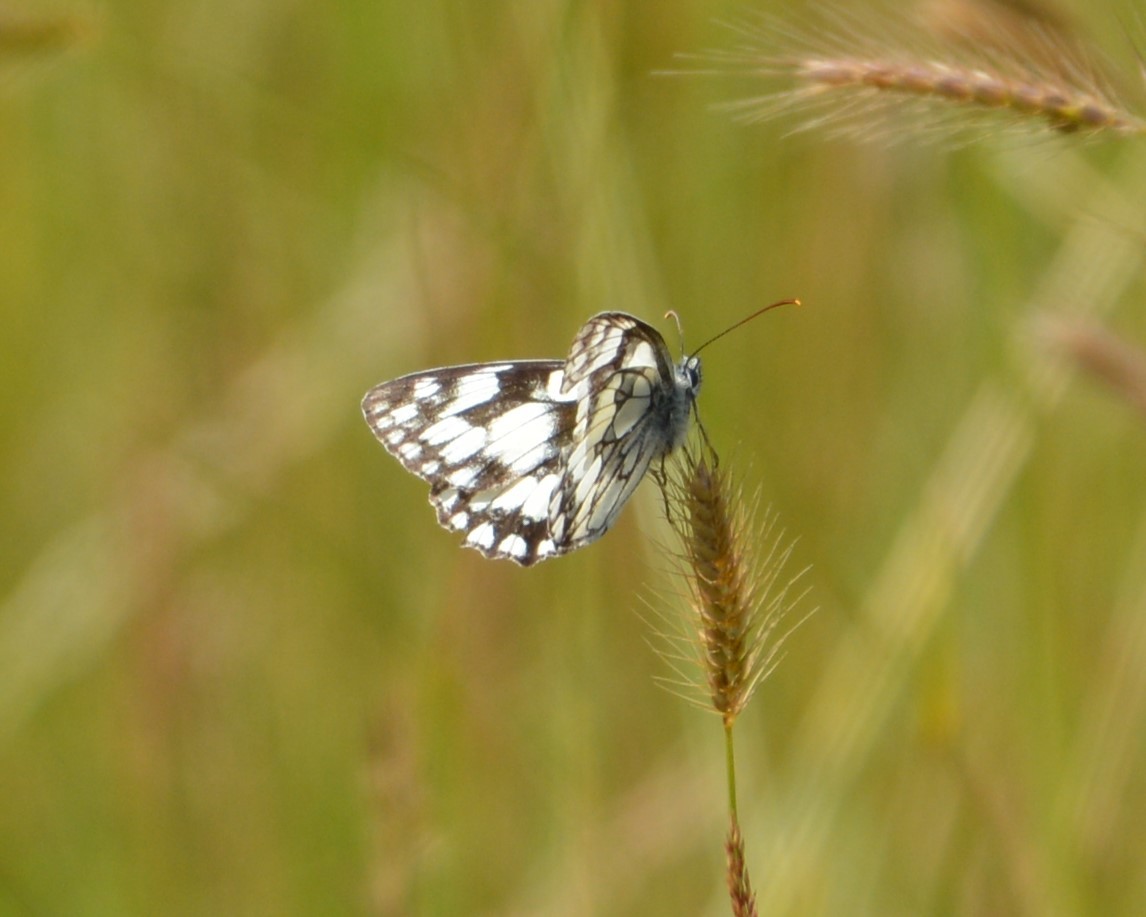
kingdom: Animalia
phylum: Arthropoda
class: Insecta
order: Lepidoptera
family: Nymphalidae
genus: Melanargia
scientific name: Melanargia galathea
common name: Marbled white
